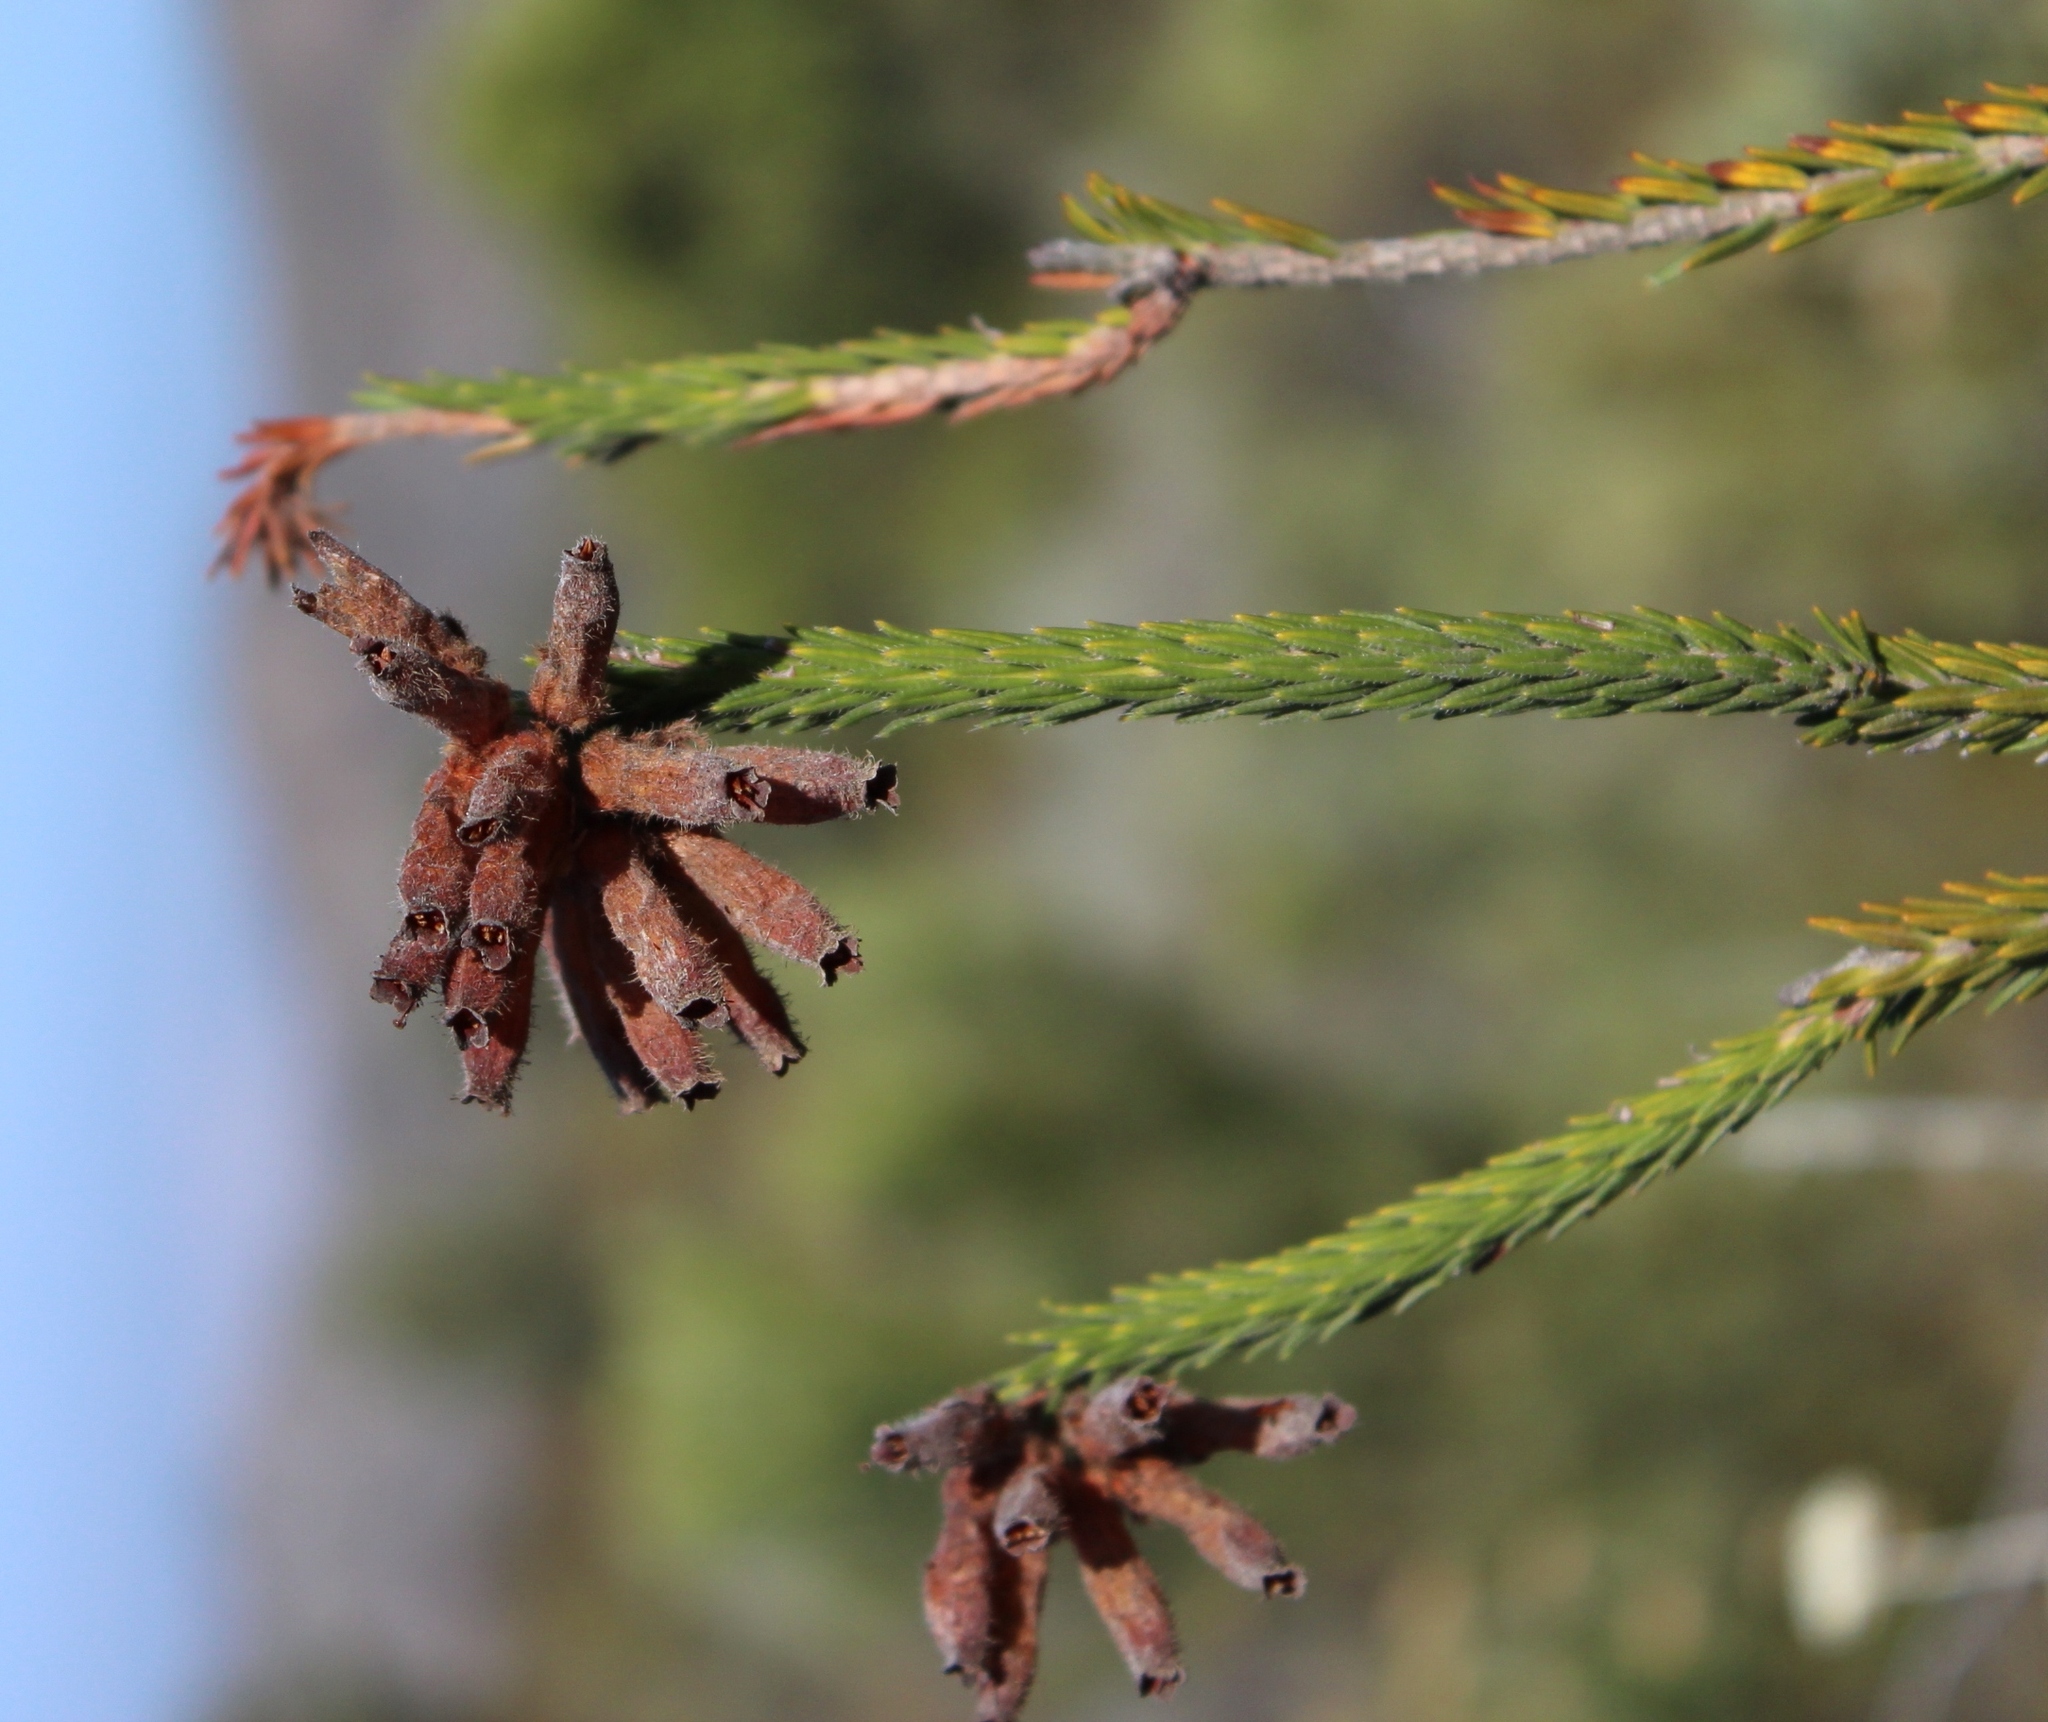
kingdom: Plantae
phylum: Tracheophyta
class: Magnoliopsida
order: Ericales
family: Ericaceae
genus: Erica
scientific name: Erica cerinthoides
